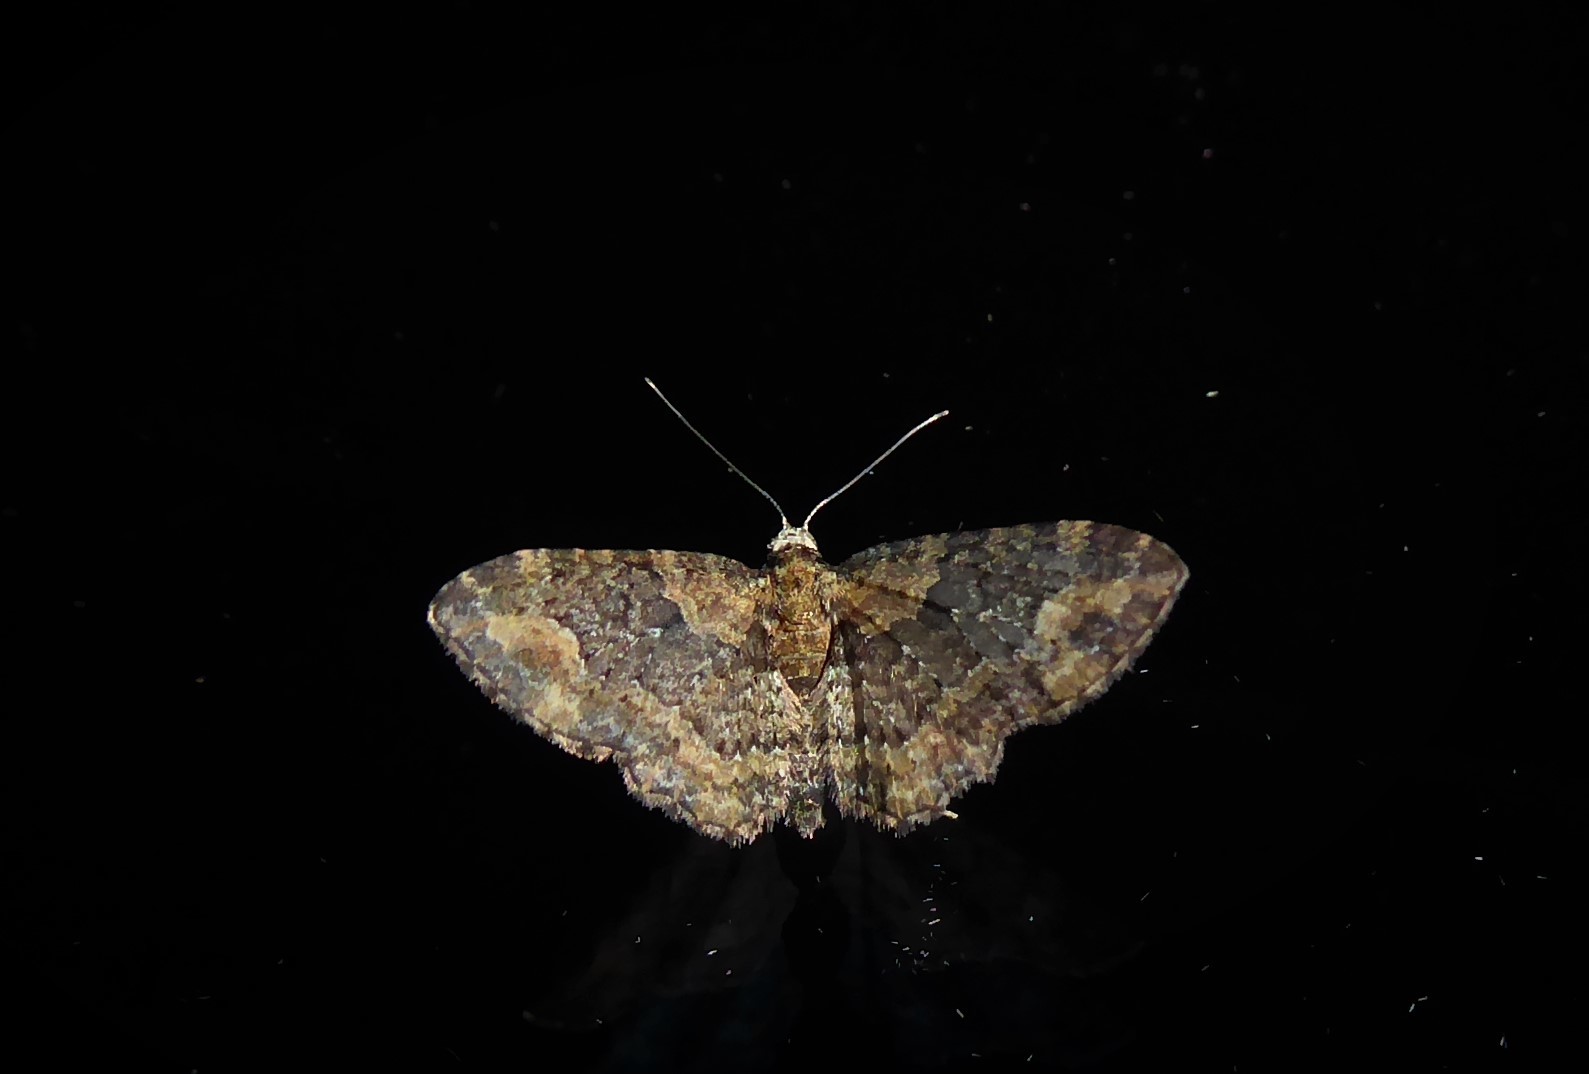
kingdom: Animalia
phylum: Arthropoda
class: Insecta
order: Lepidoptera
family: Geometridae
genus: Pasiphilodes
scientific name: Pasiphilodes testulata
